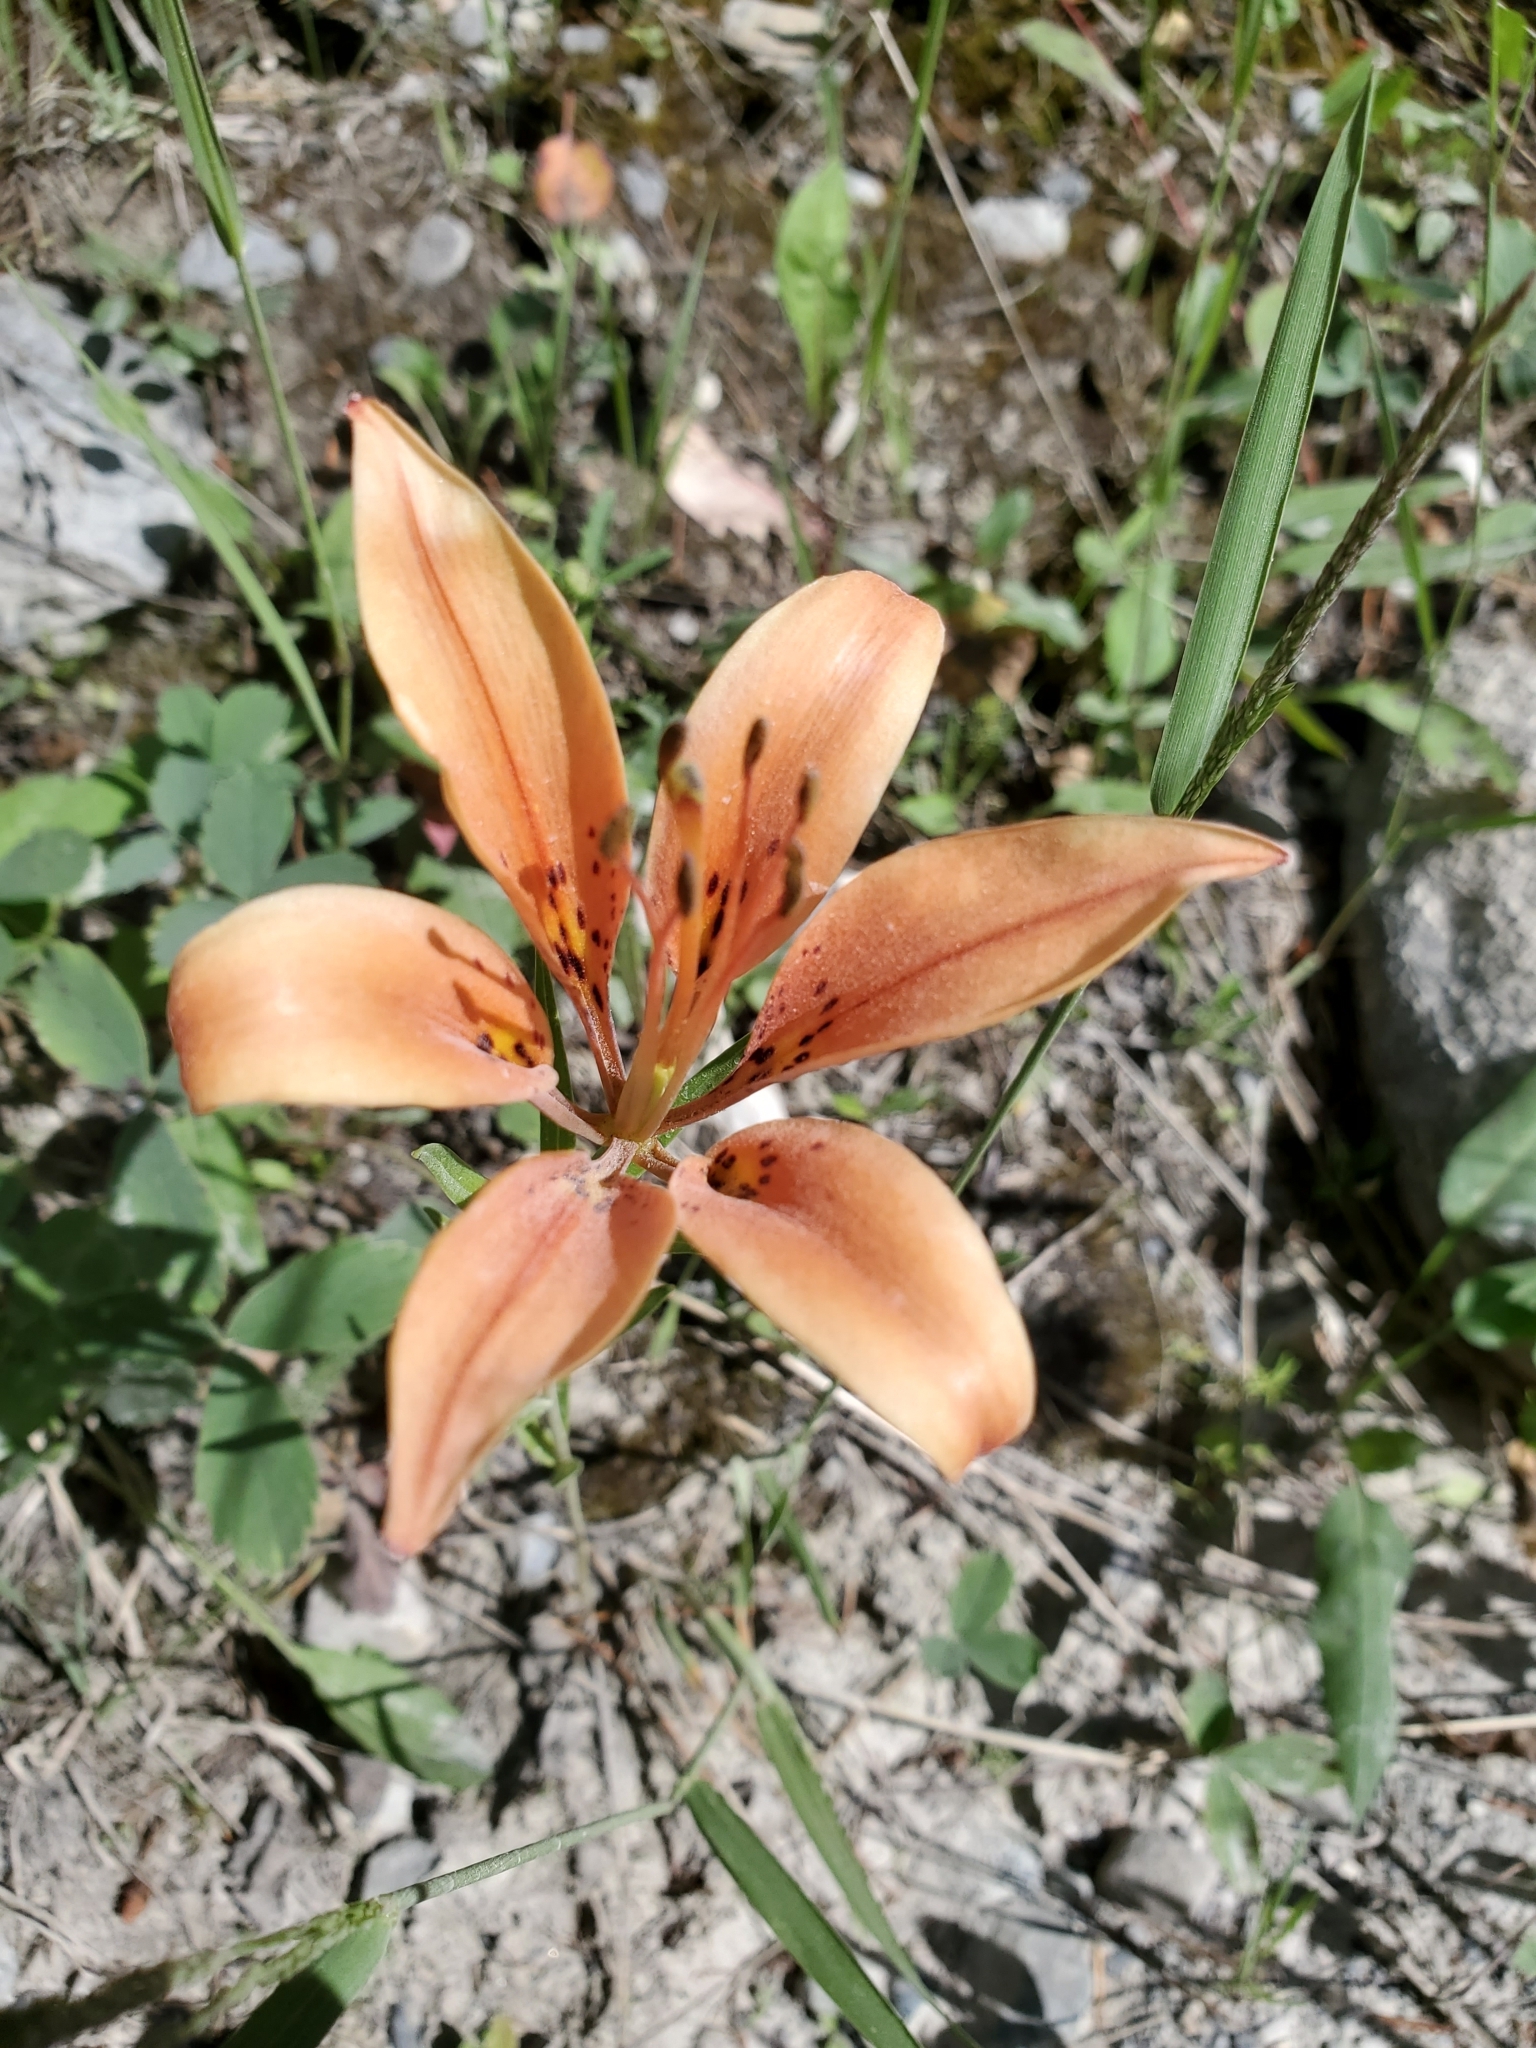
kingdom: Plantae
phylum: Tracheophyta
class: Liliopsida
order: Liliales
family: Liliaceae
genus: Lilium
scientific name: Lilium philadelphicum
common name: Red lily
